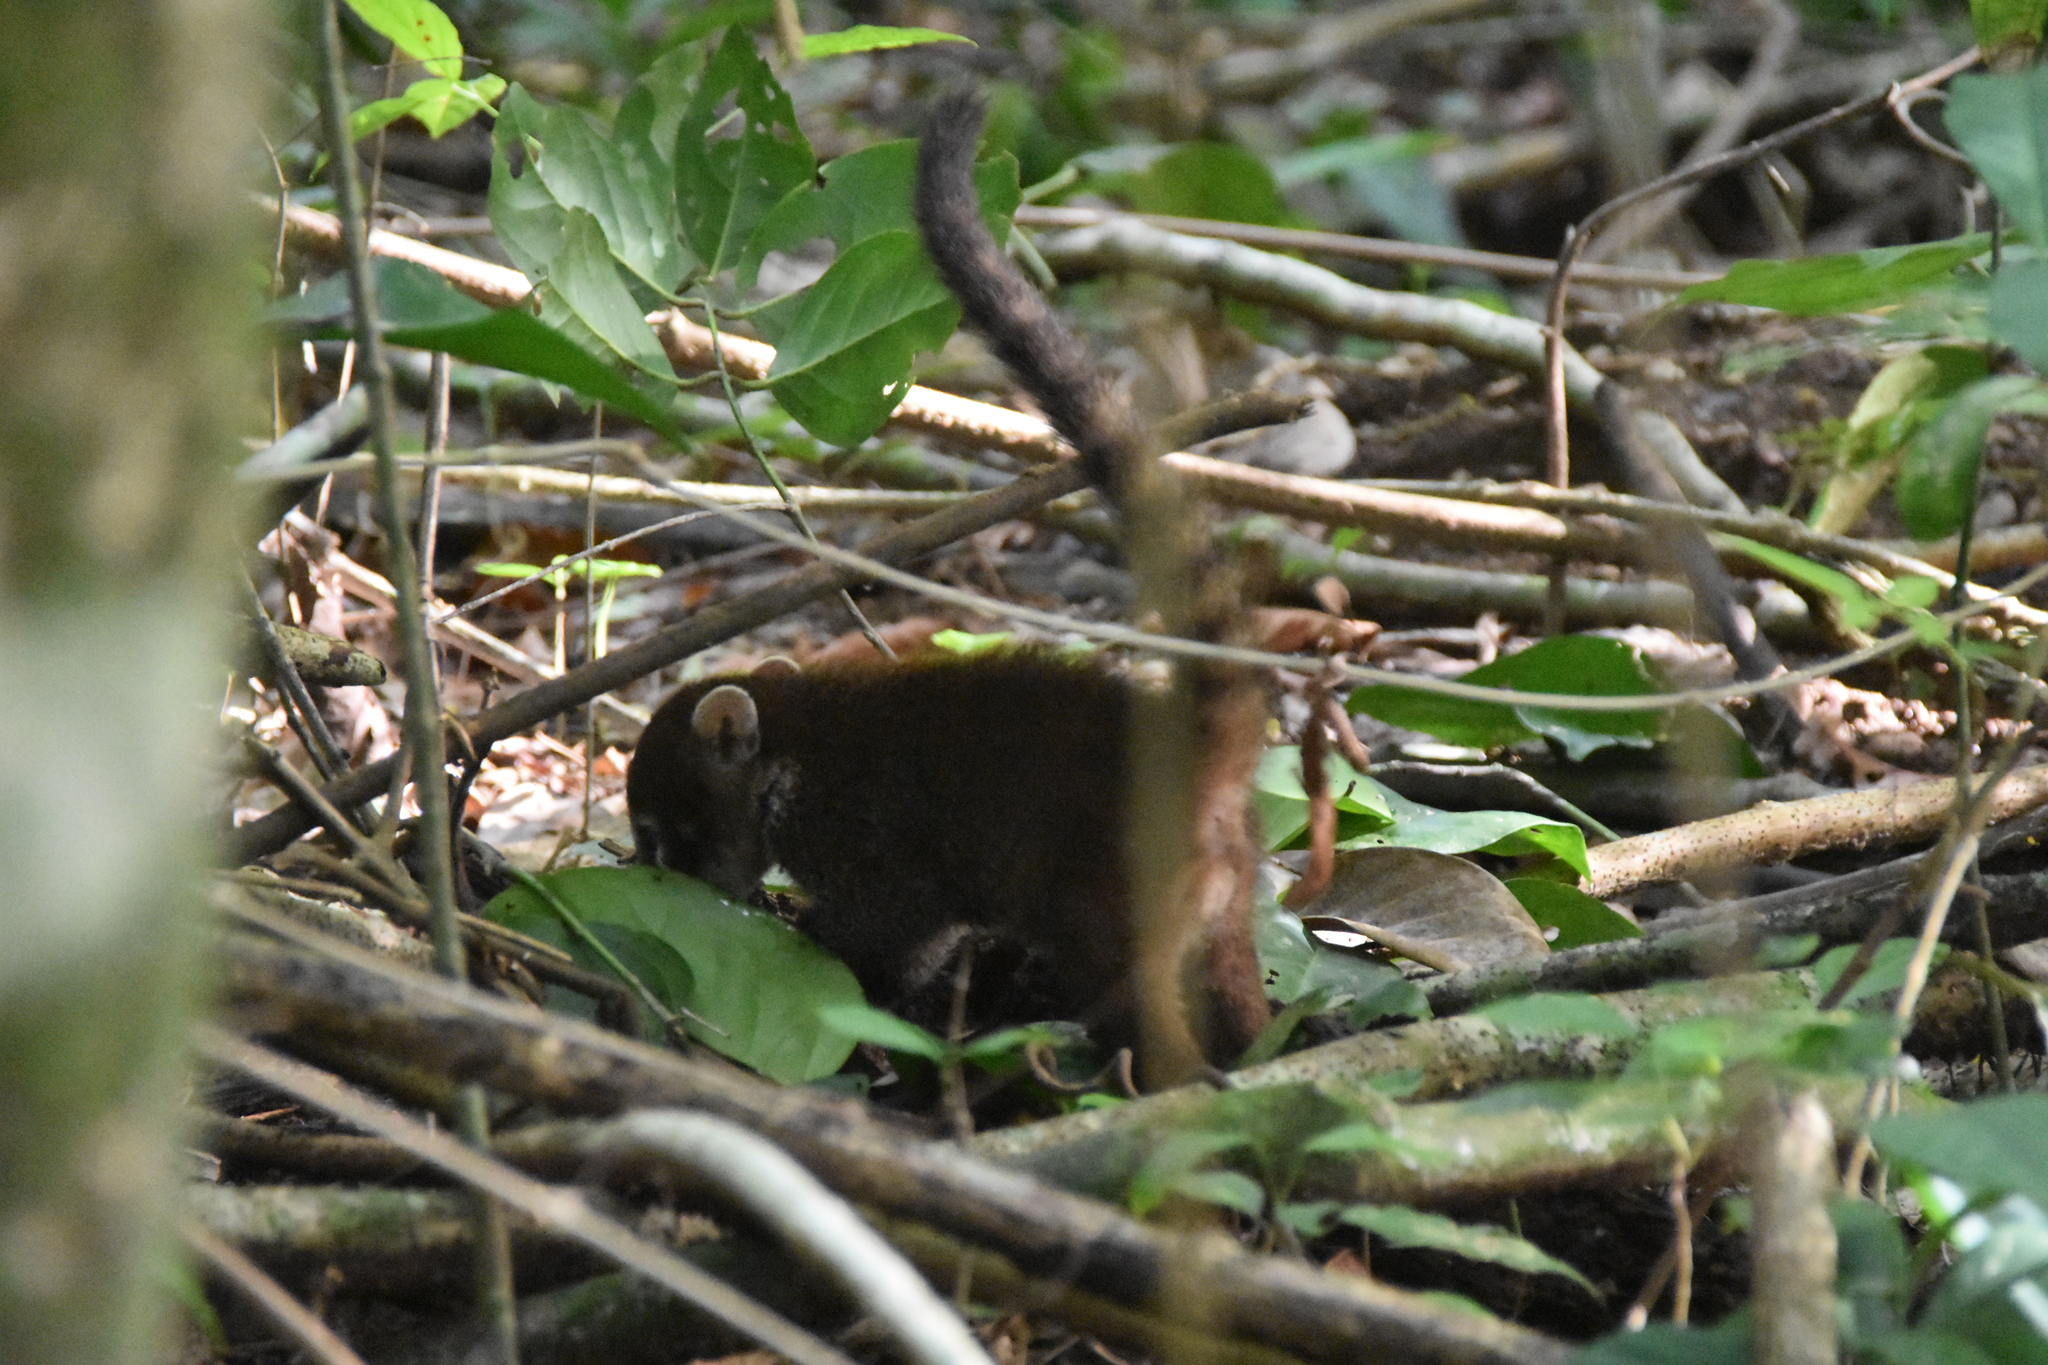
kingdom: Animalia
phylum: Chordata
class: Mammalia
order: Carnivora
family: Procyonidae
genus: Nasua
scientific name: Nasua narica
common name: White-nosed coati
